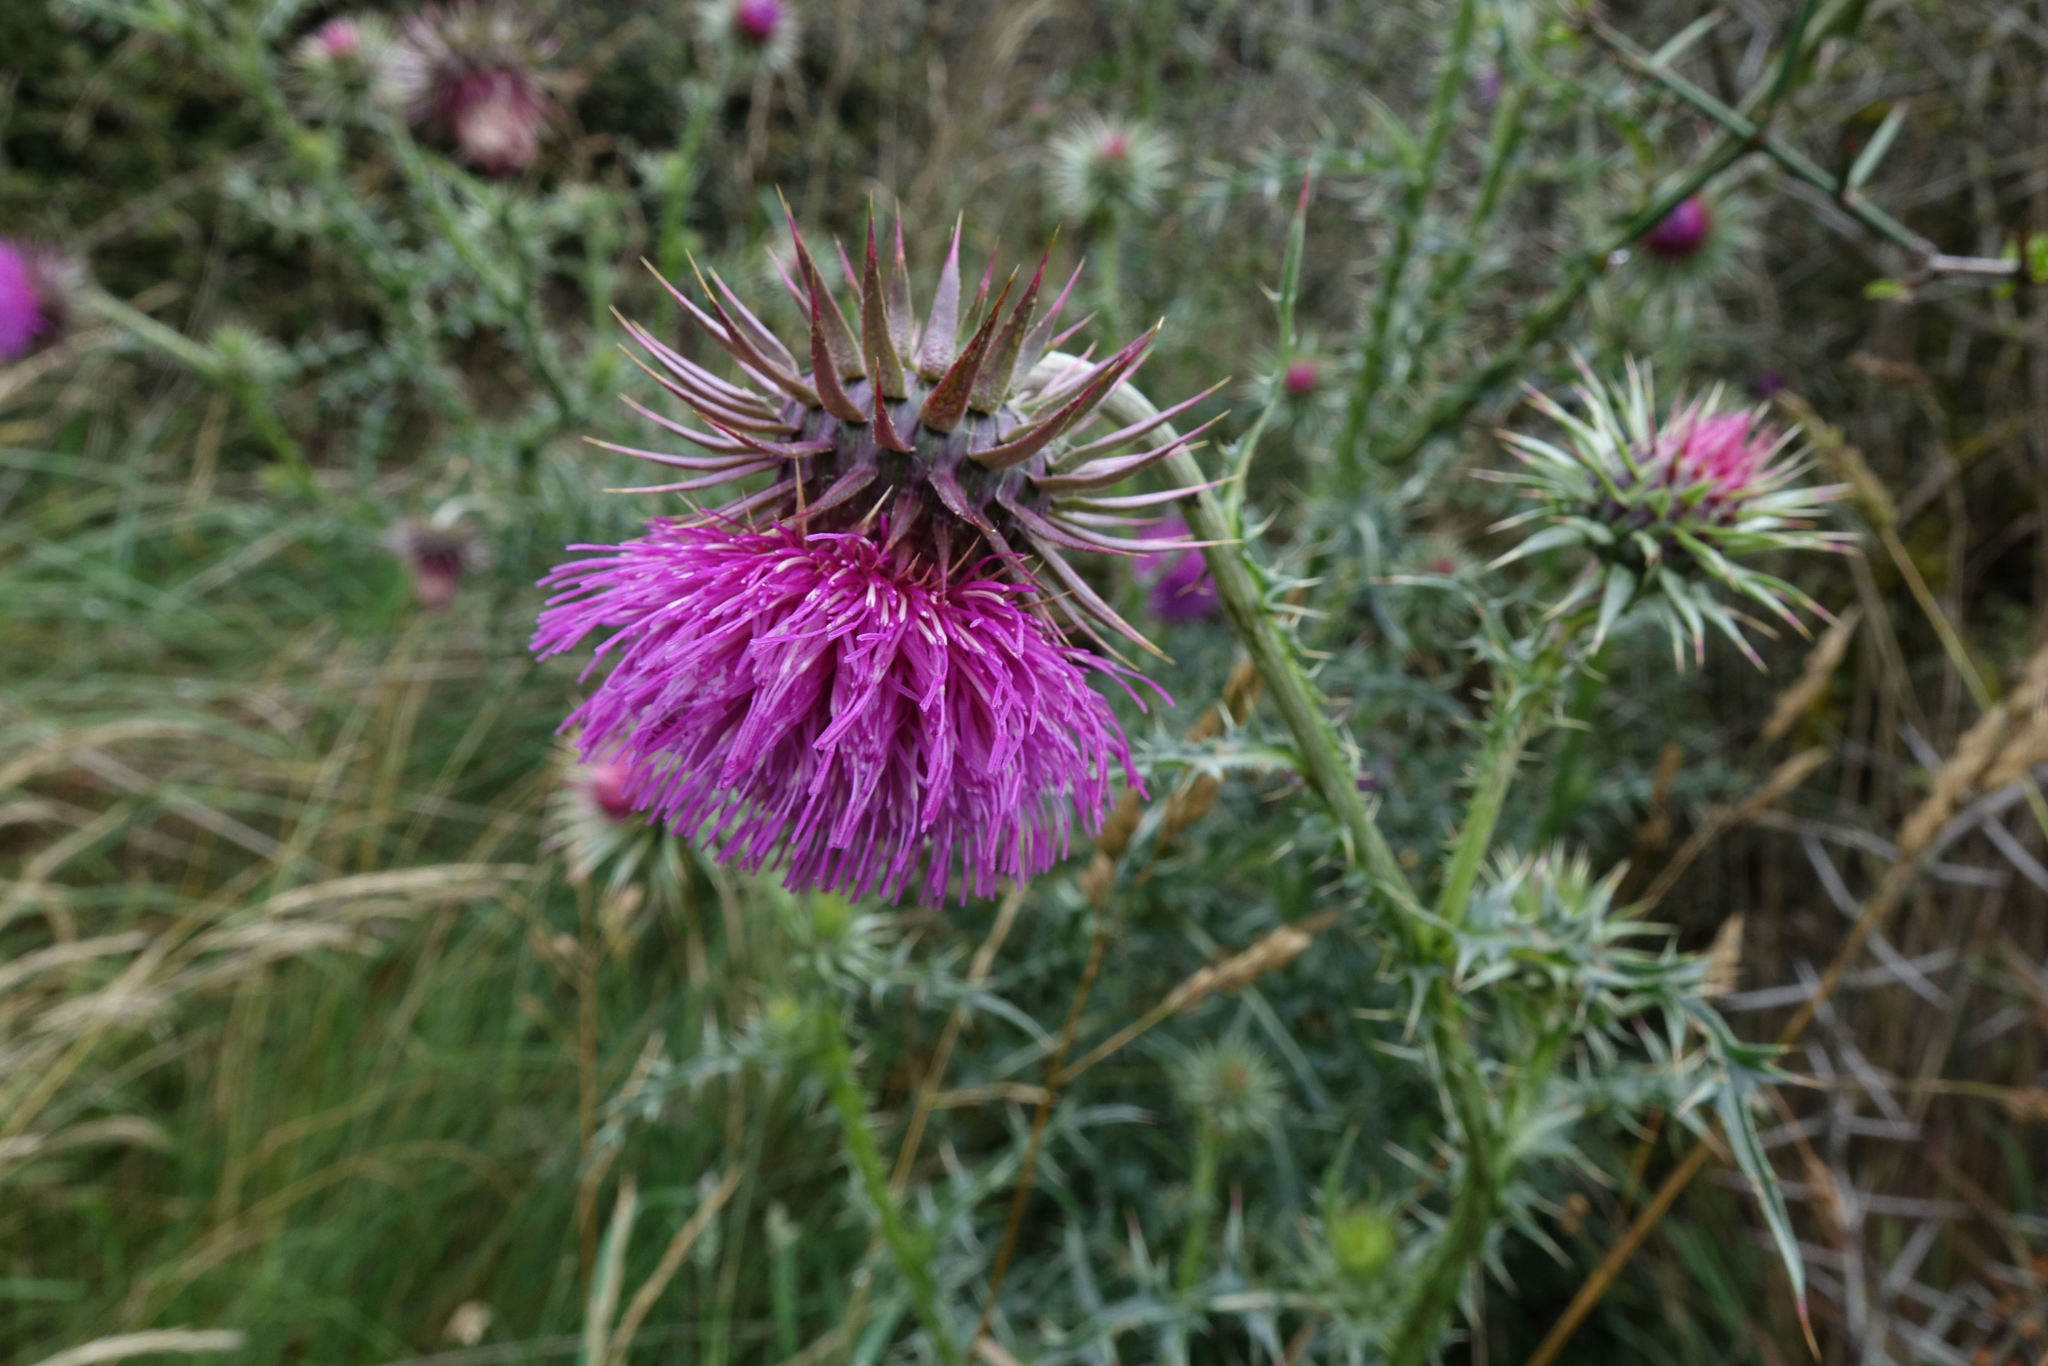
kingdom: Plantae
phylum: Tracheophyta
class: Magnoliopsida
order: Asterales
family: Asteraceae
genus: Carduus
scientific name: Carduus nutans
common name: Musk thistle
